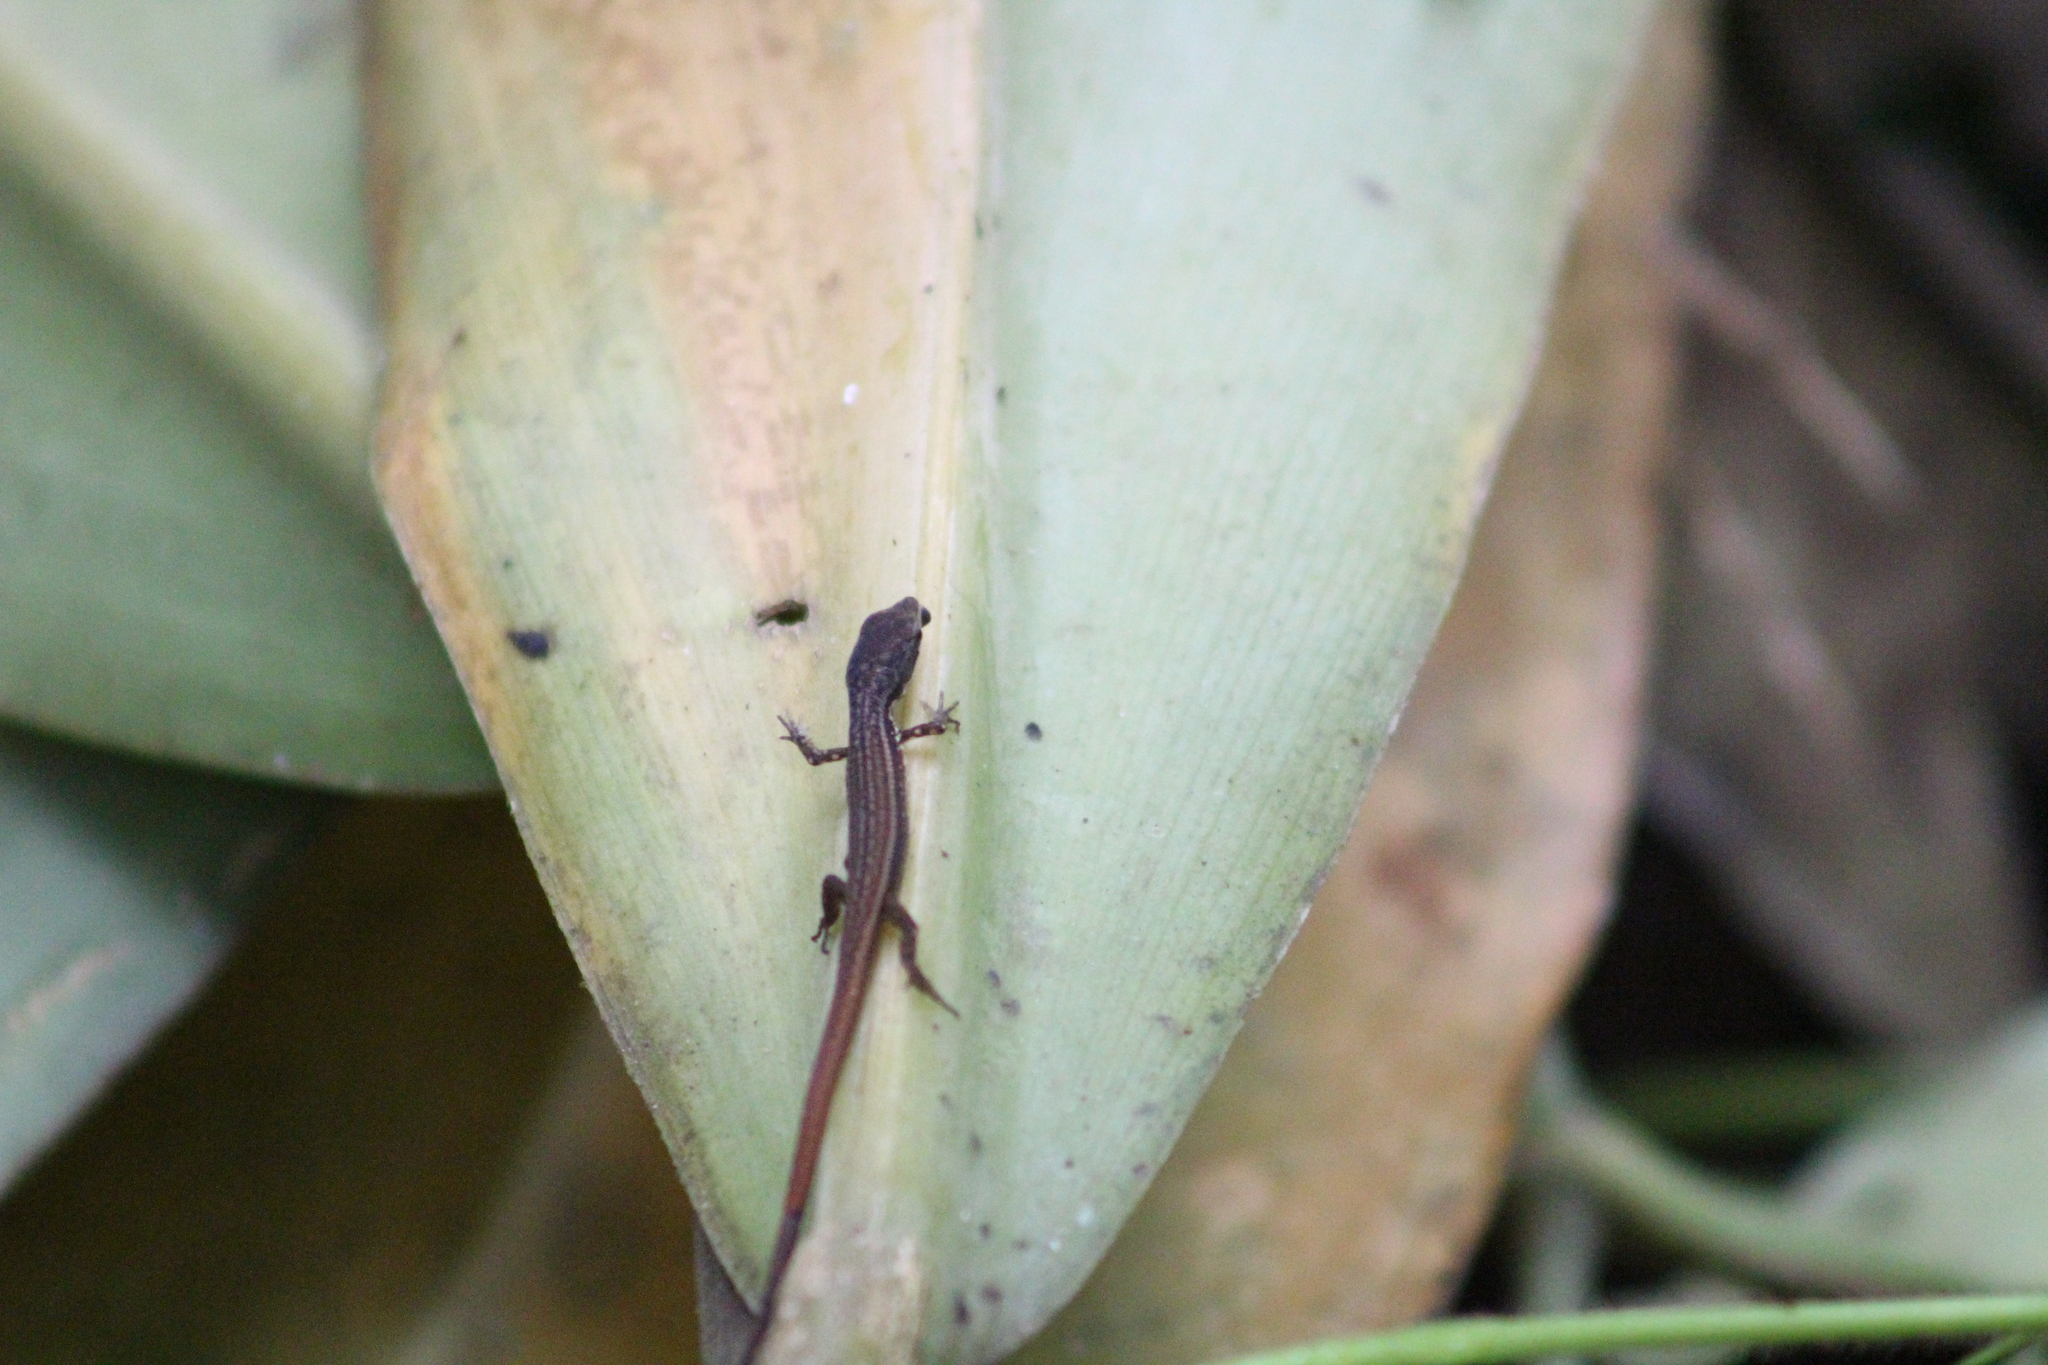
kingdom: Animalia
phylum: Chordata
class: Squamata
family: Gymnophthalmidae
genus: Cercosaura
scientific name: Cercosaura argulus
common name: White-lipped cercosaura
